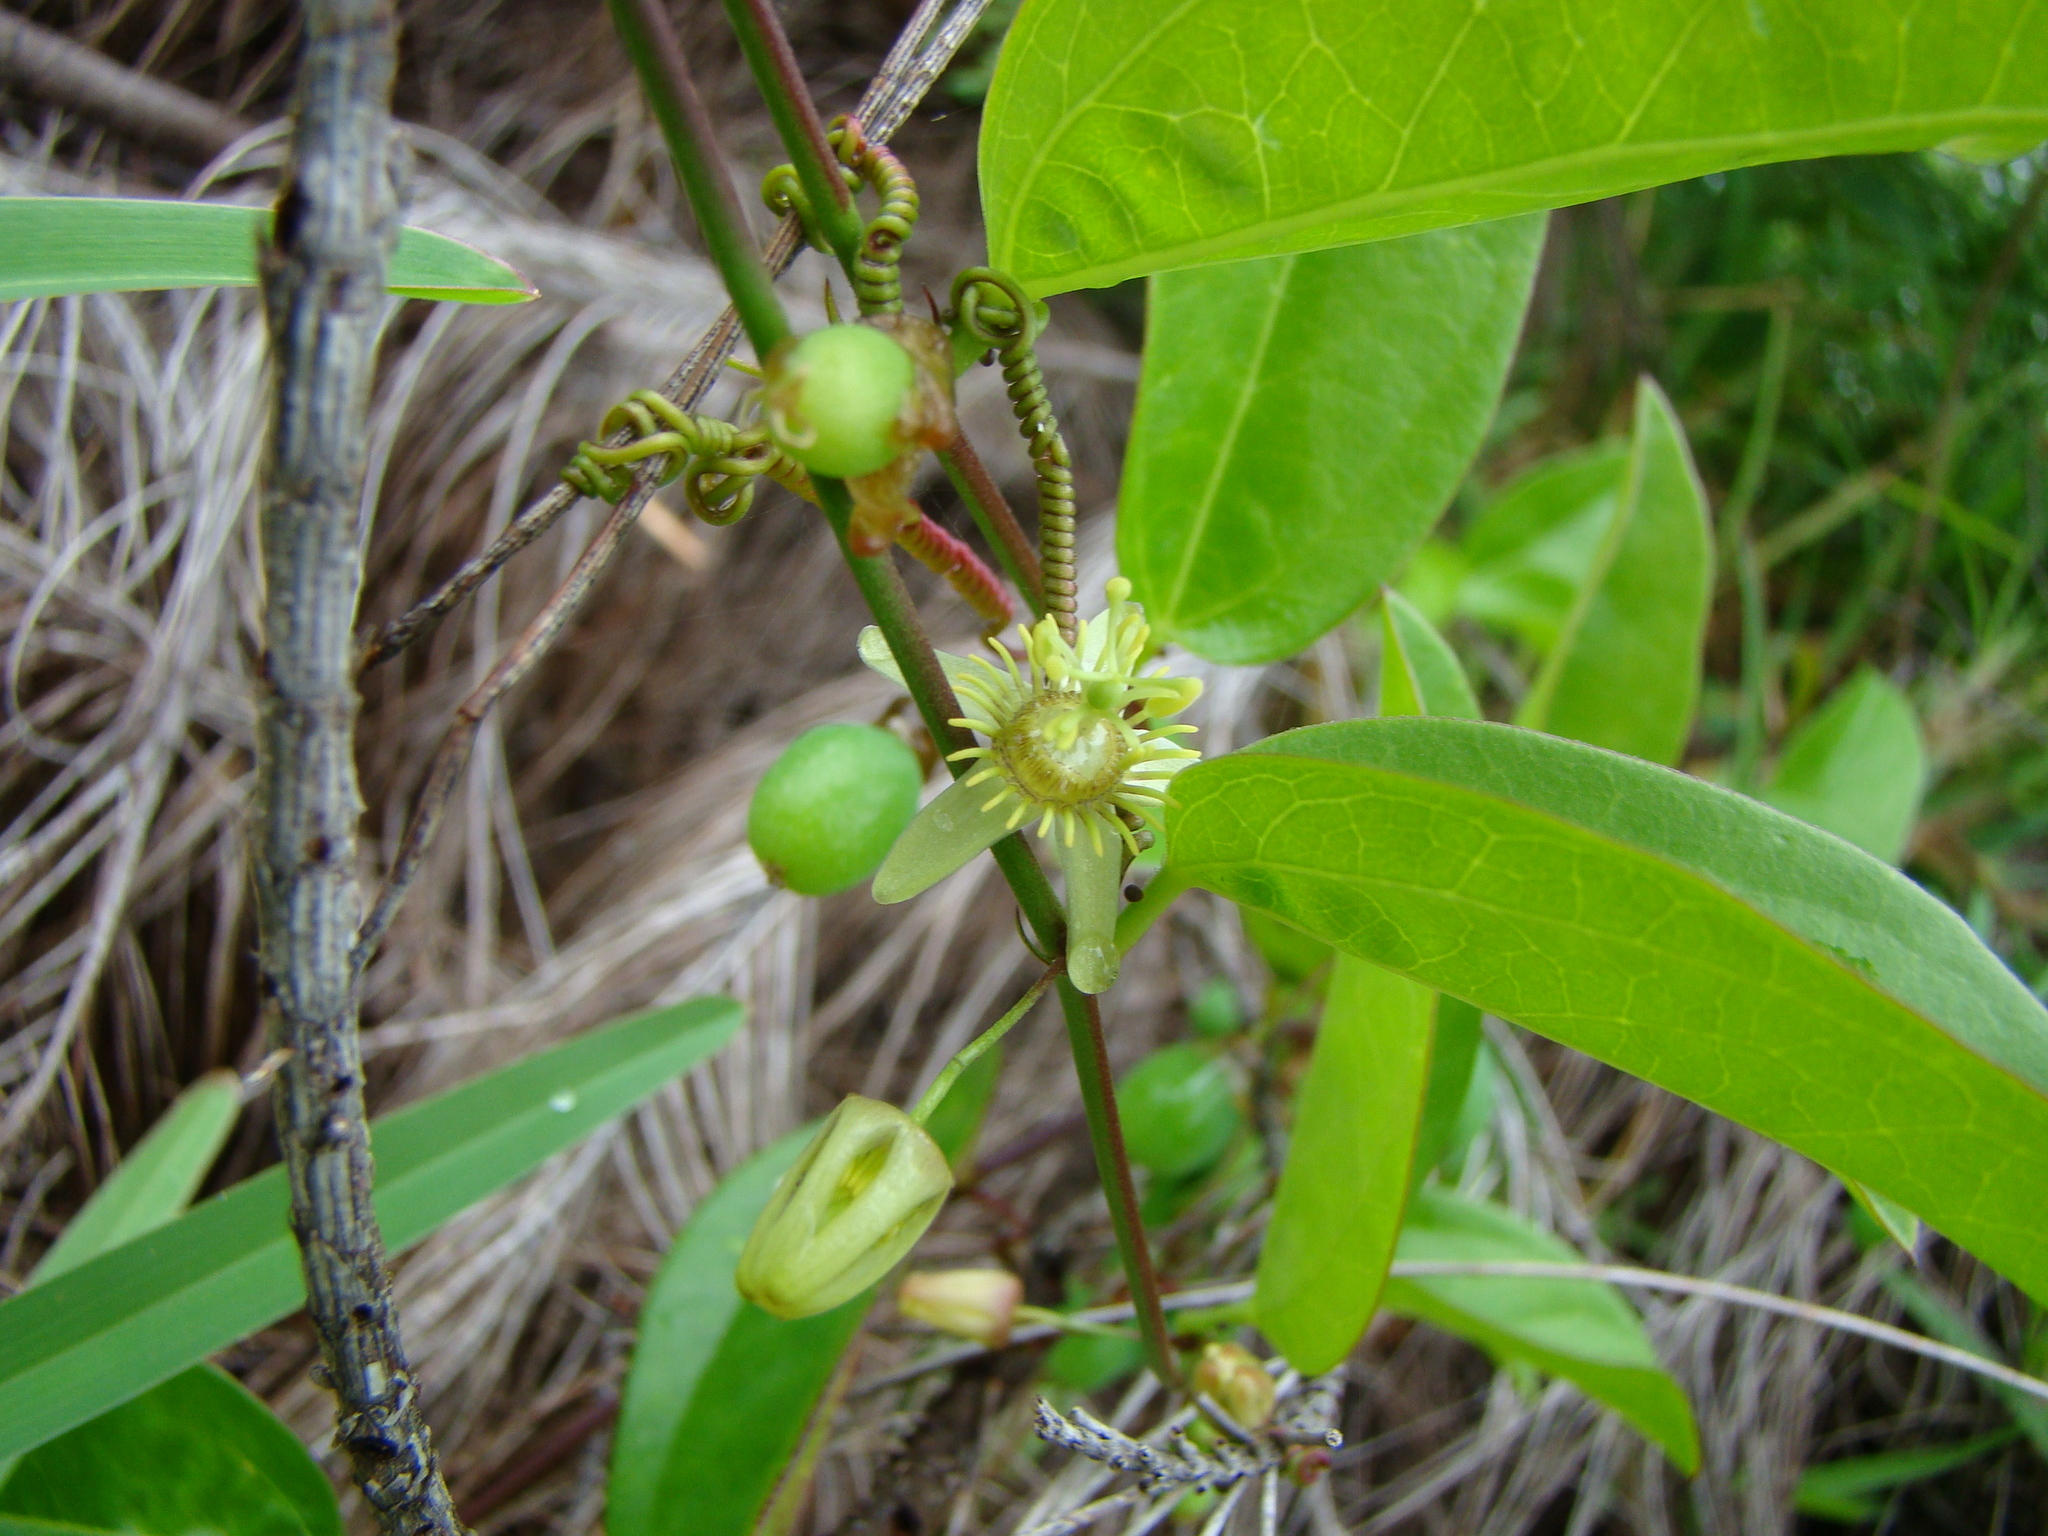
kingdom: Plantae
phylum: Tracheophyta
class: Magnoliopsida
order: Malpighiales
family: Passifloraceae
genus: Passiflora
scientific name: Passiflora pallida
